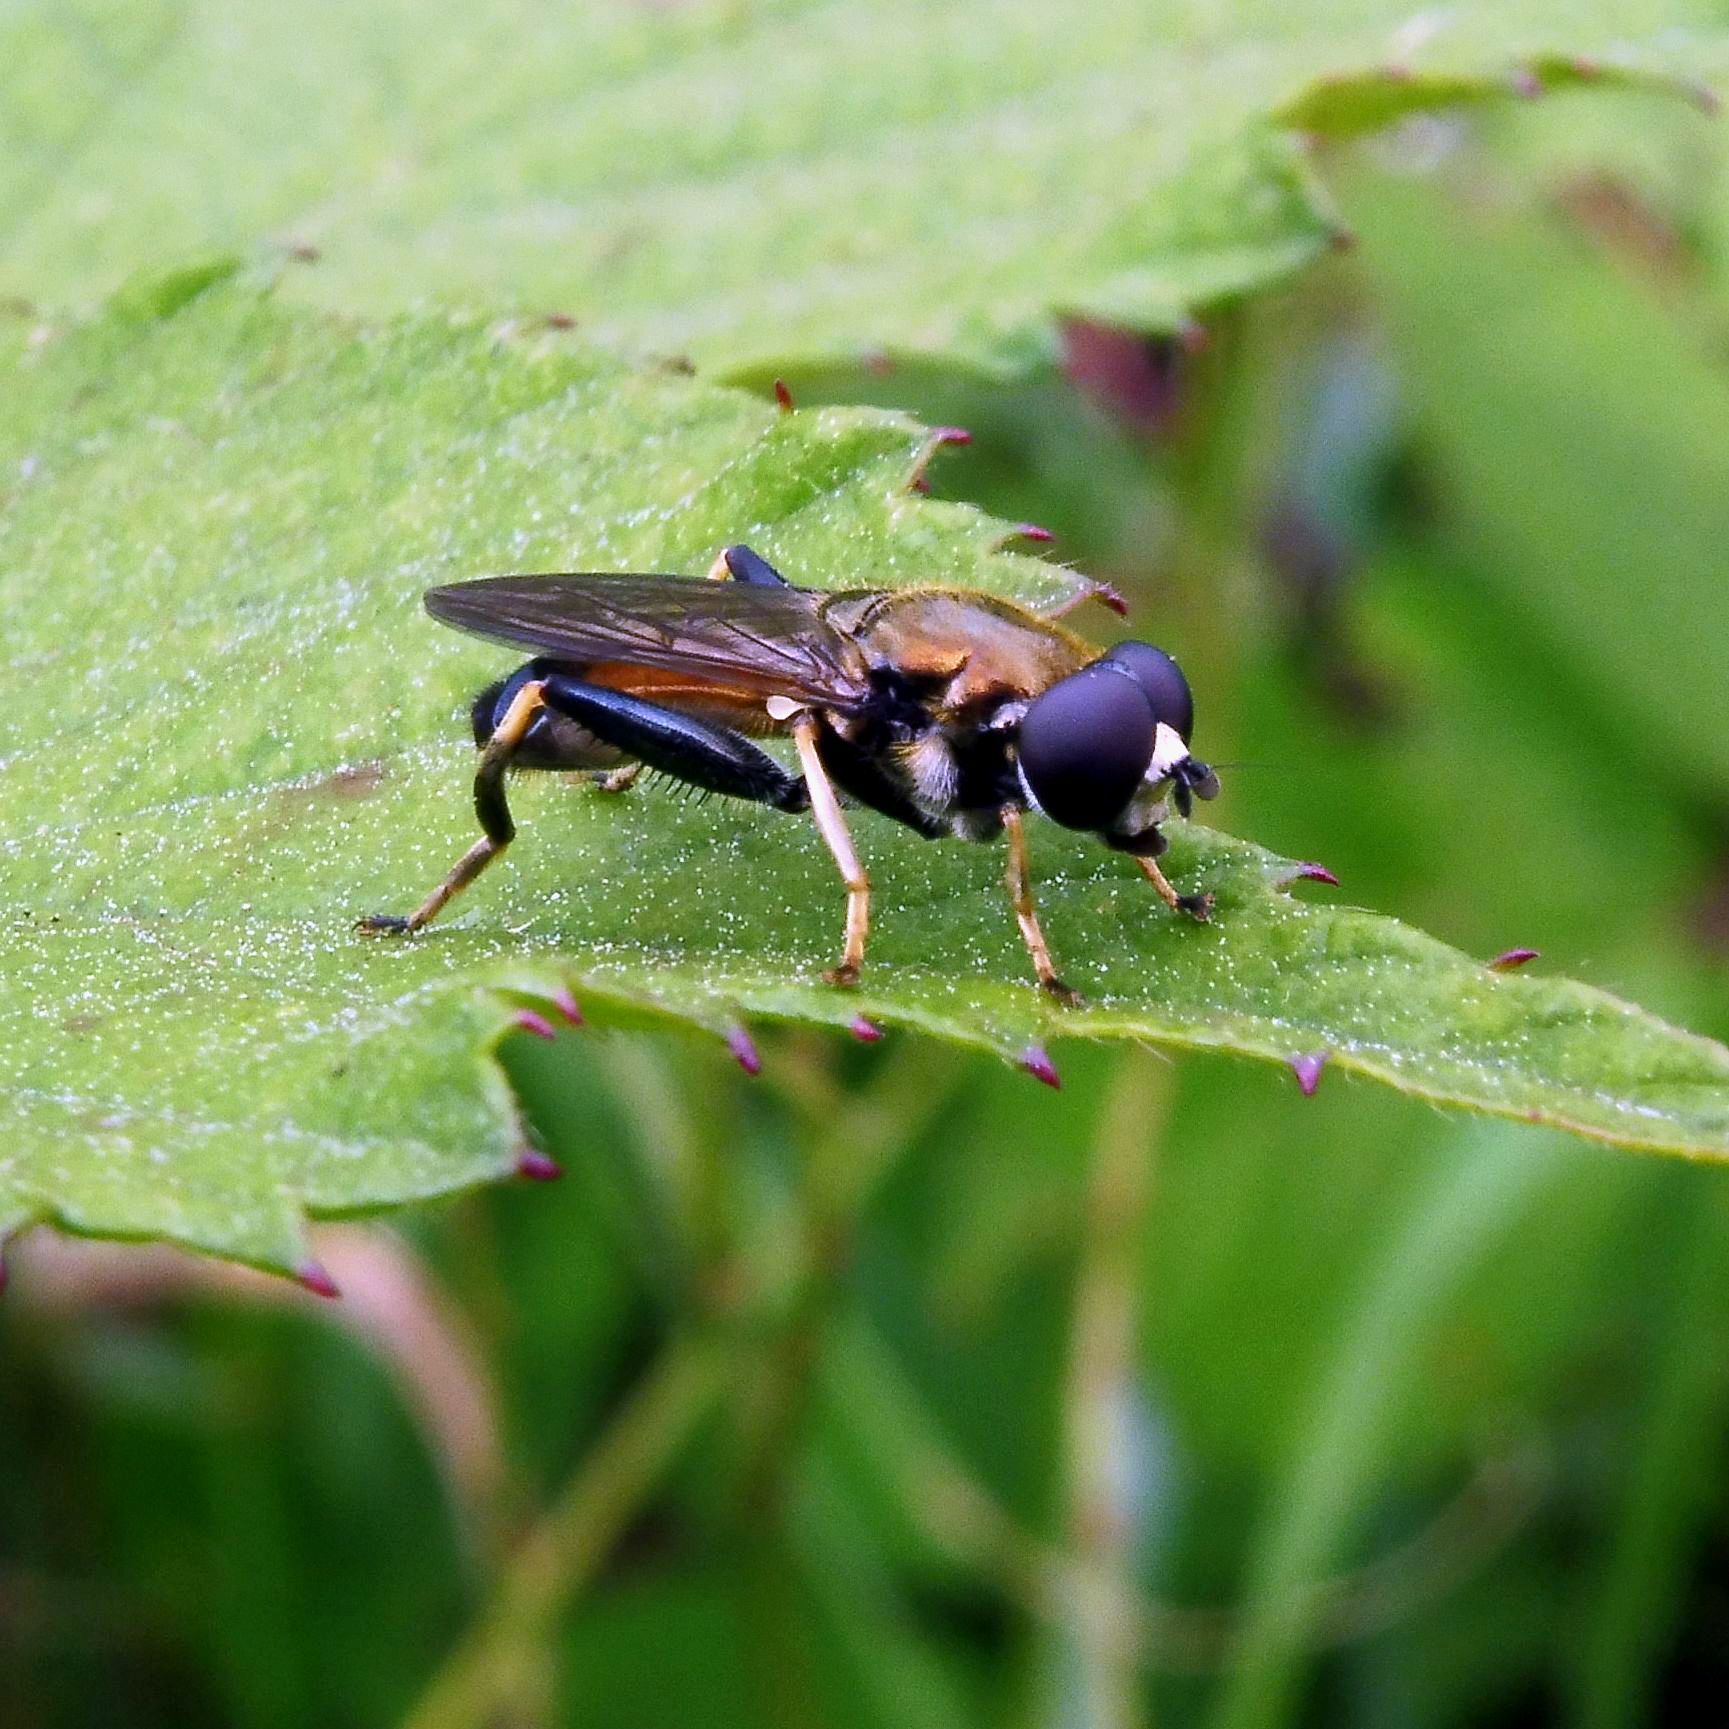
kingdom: Animalia
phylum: Arthropoda
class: Insecta
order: Diptera
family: Syrphidae
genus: Xylota
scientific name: Xylota segnis
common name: Brown-toed forest fly
